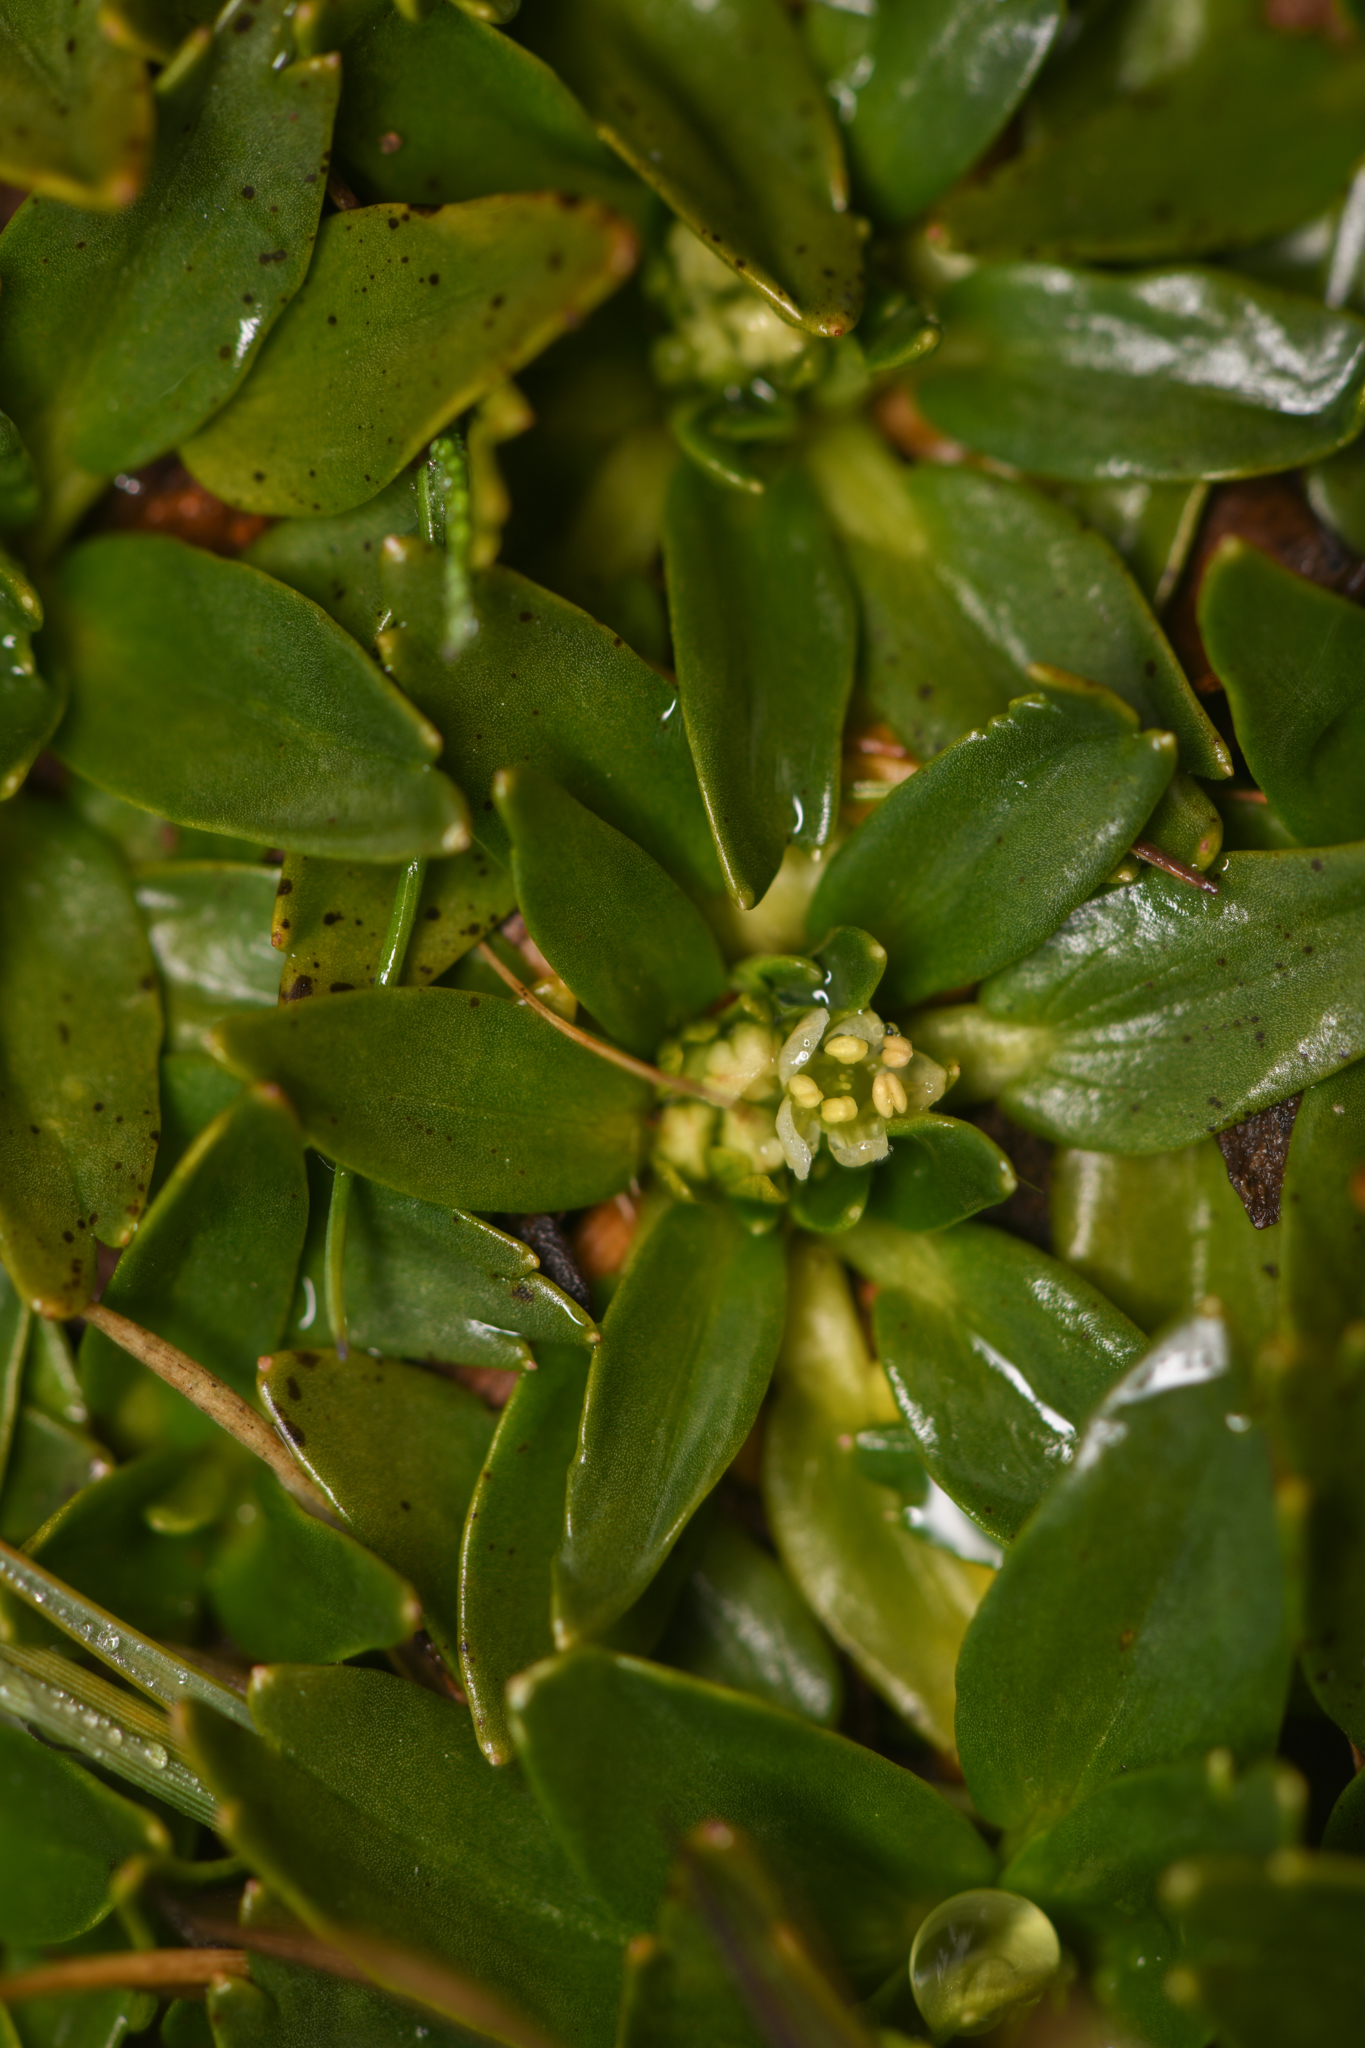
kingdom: Plantae
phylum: Tracheophyta
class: Magnoliopsida
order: Apiales
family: Apiaceae
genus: Azorella
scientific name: Azorella aretioides
